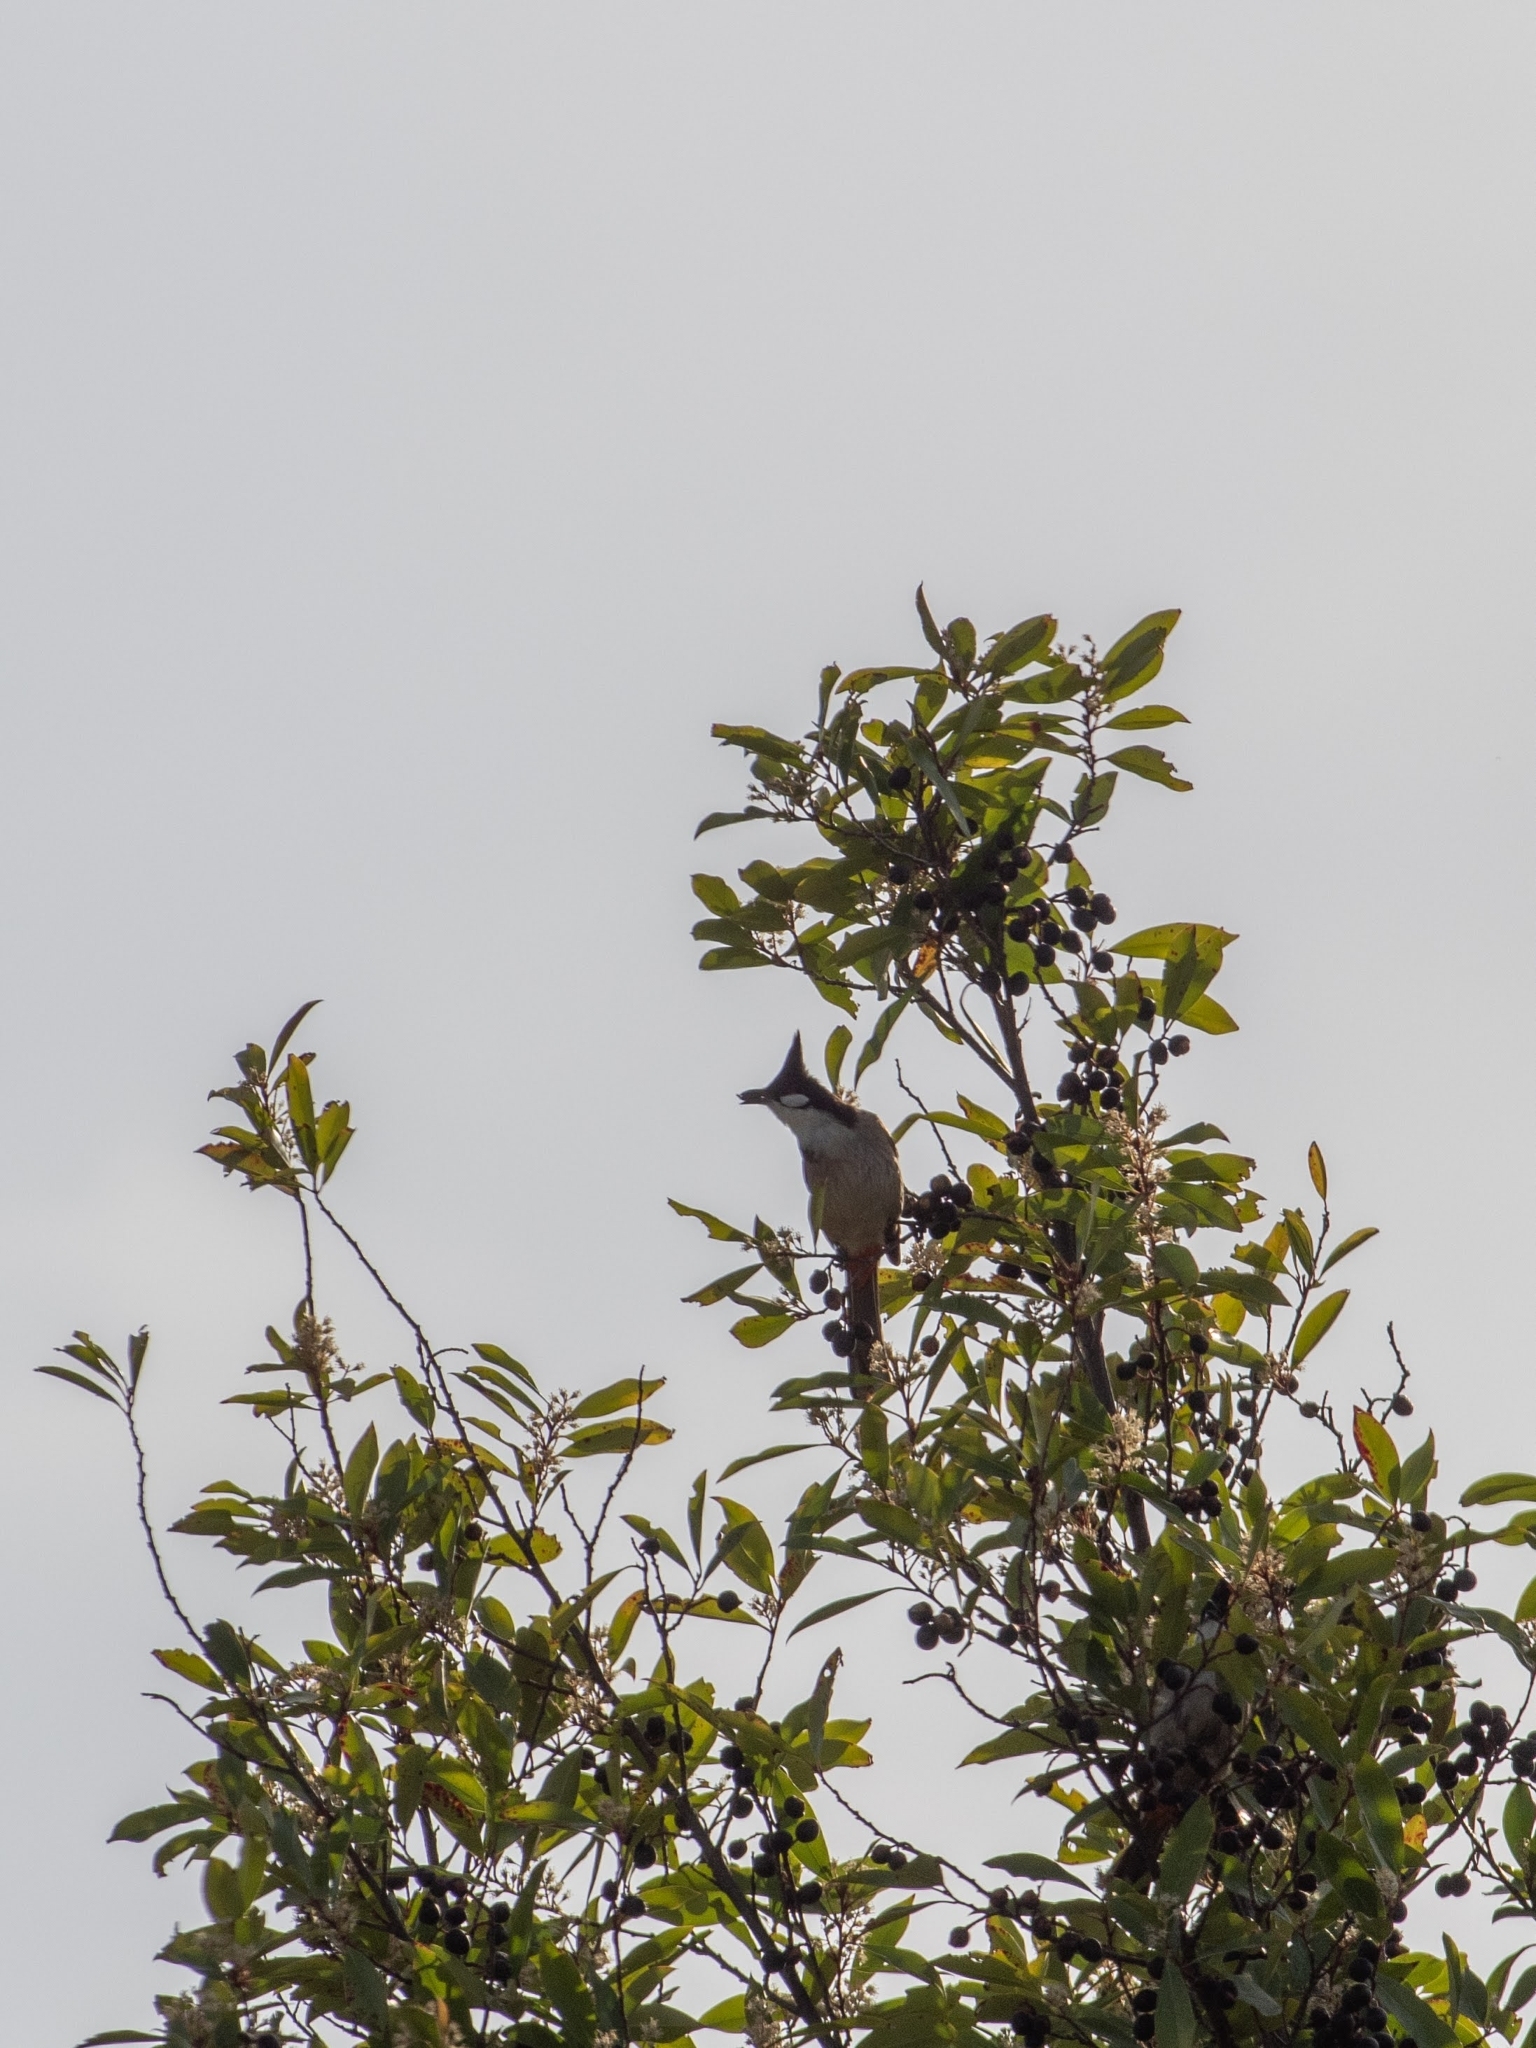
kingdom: Animalia
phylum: Chordata
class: Aves
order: Passeriformes
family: Pycnonotidae
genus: Pycnonotus
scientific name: Pycnonotus jocosus
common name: Red-whiskered bulbul
